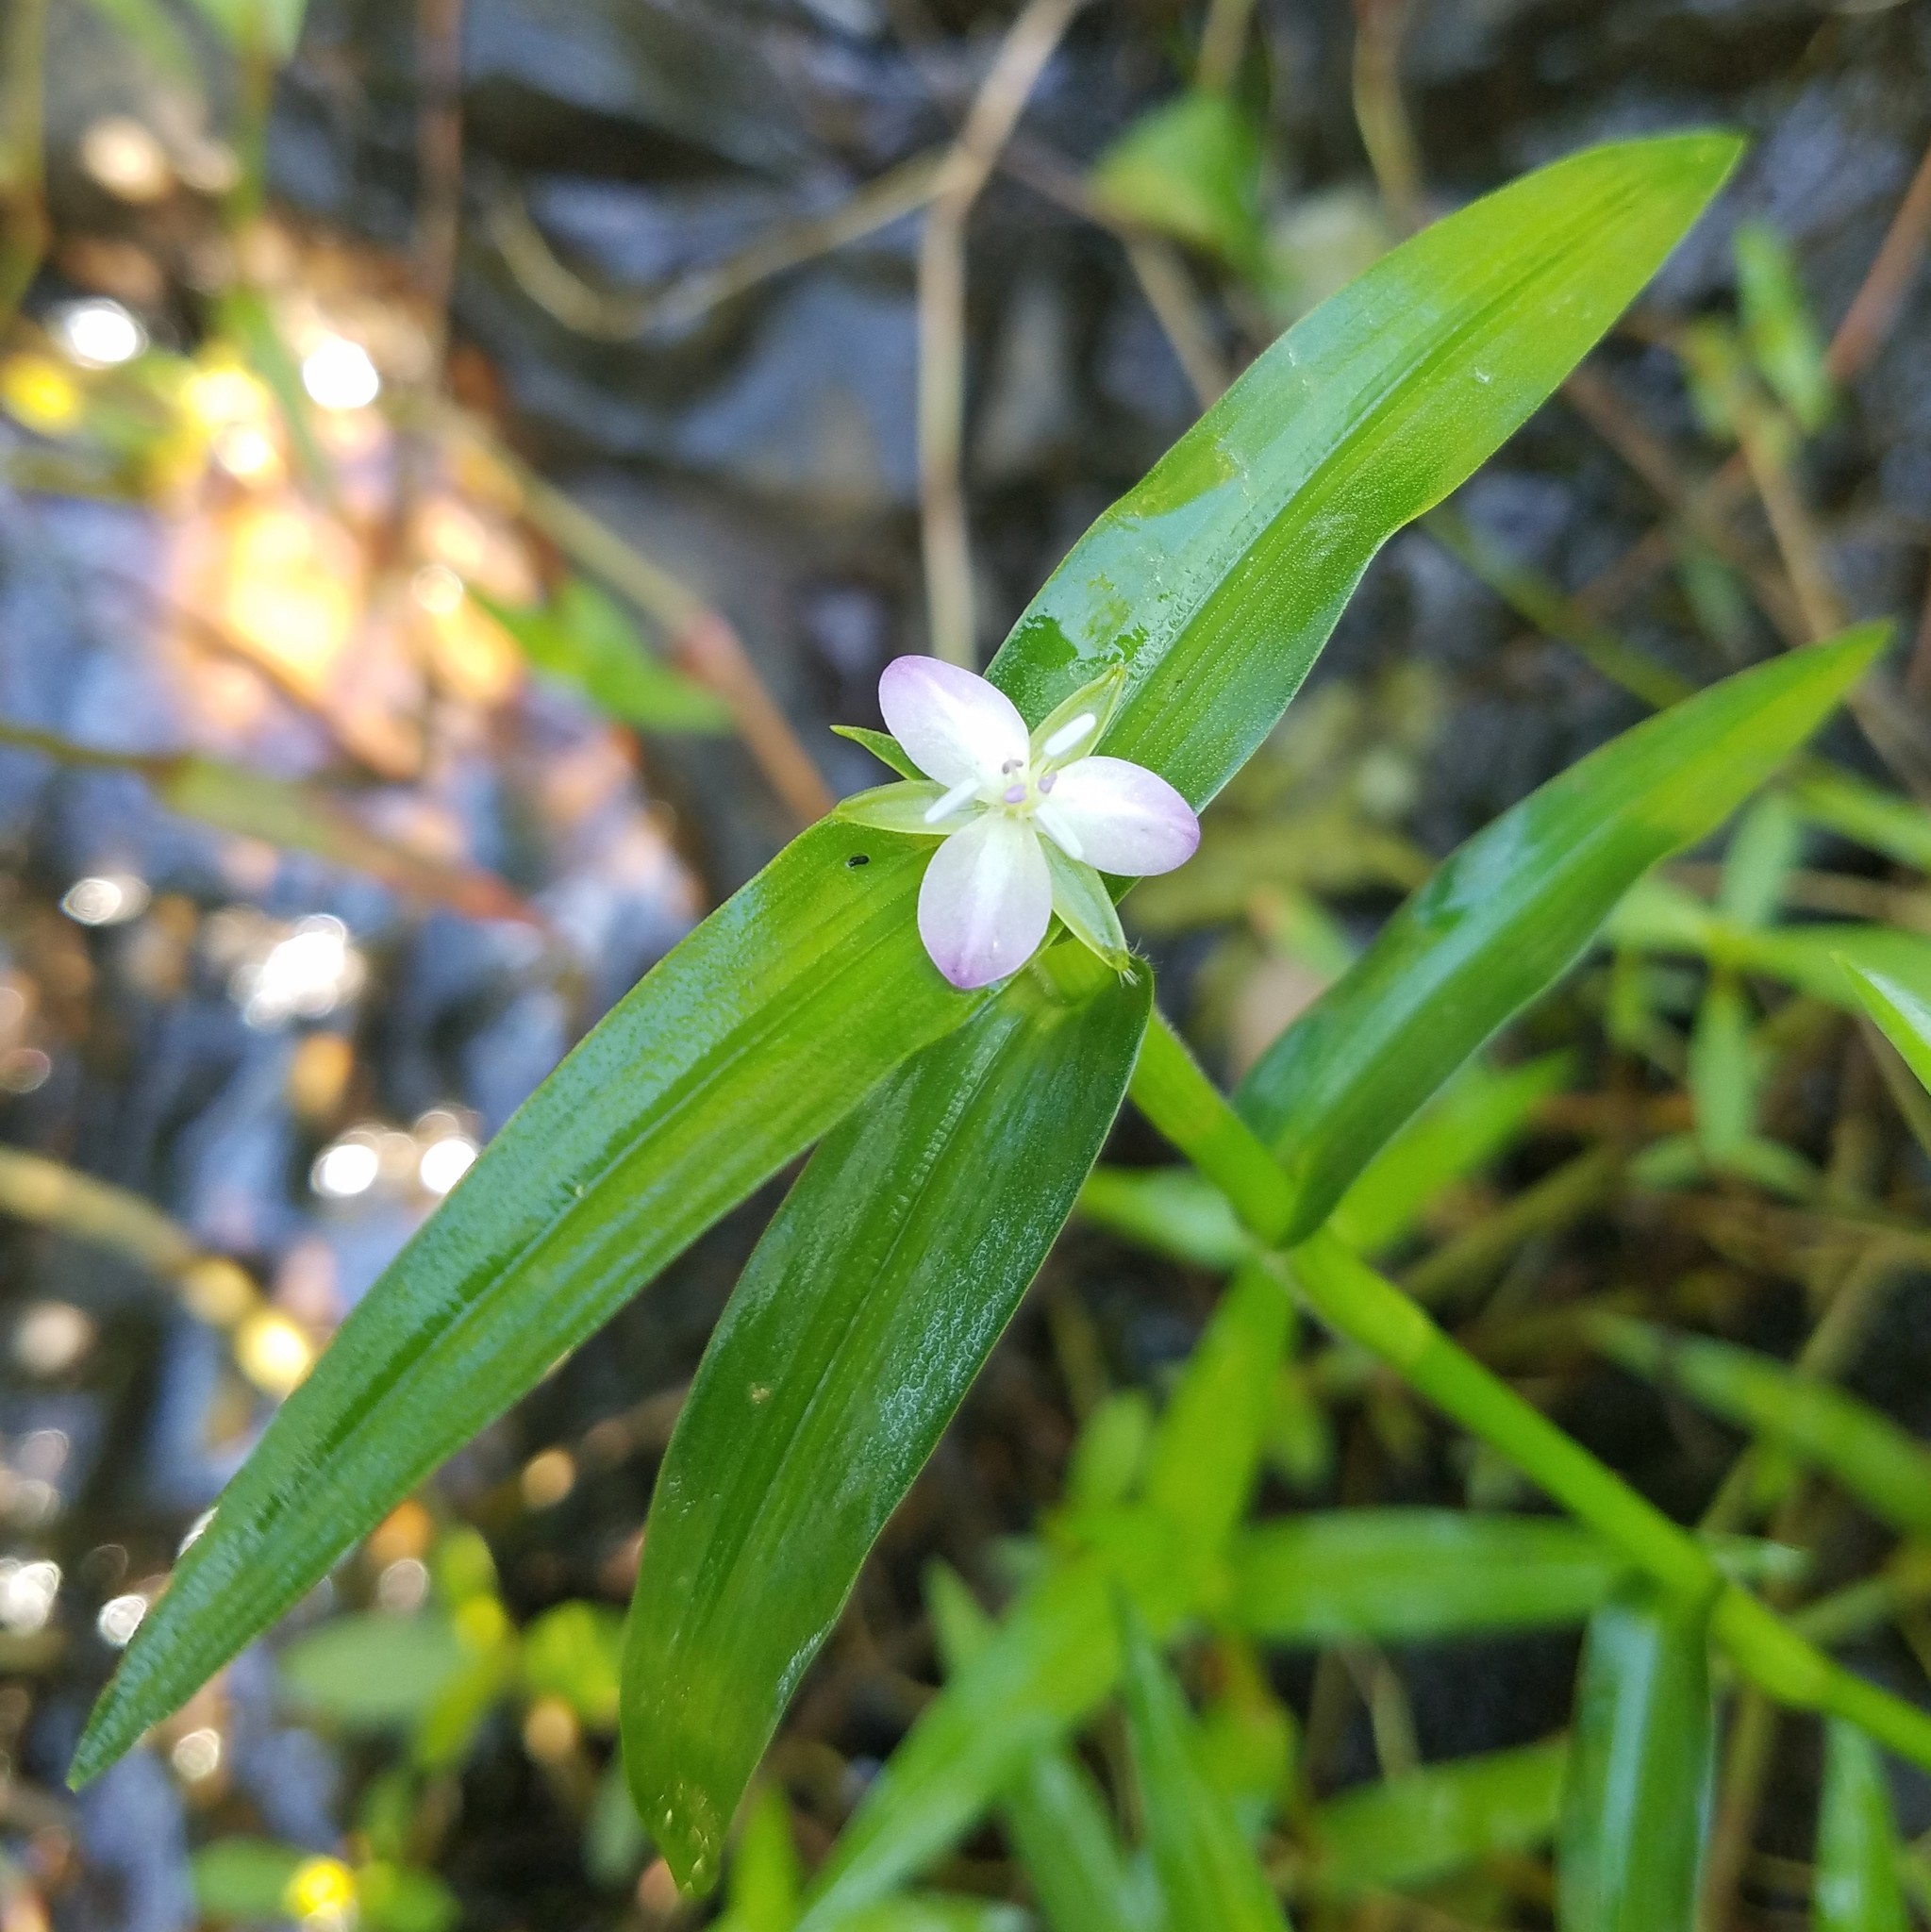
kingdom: Plantae
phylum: Tracheophyta
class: Liliopsida
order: Commelinales
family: Commelinaceae
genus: Murdannia
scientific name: Murdannia keisak
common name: Wartremoving herb
